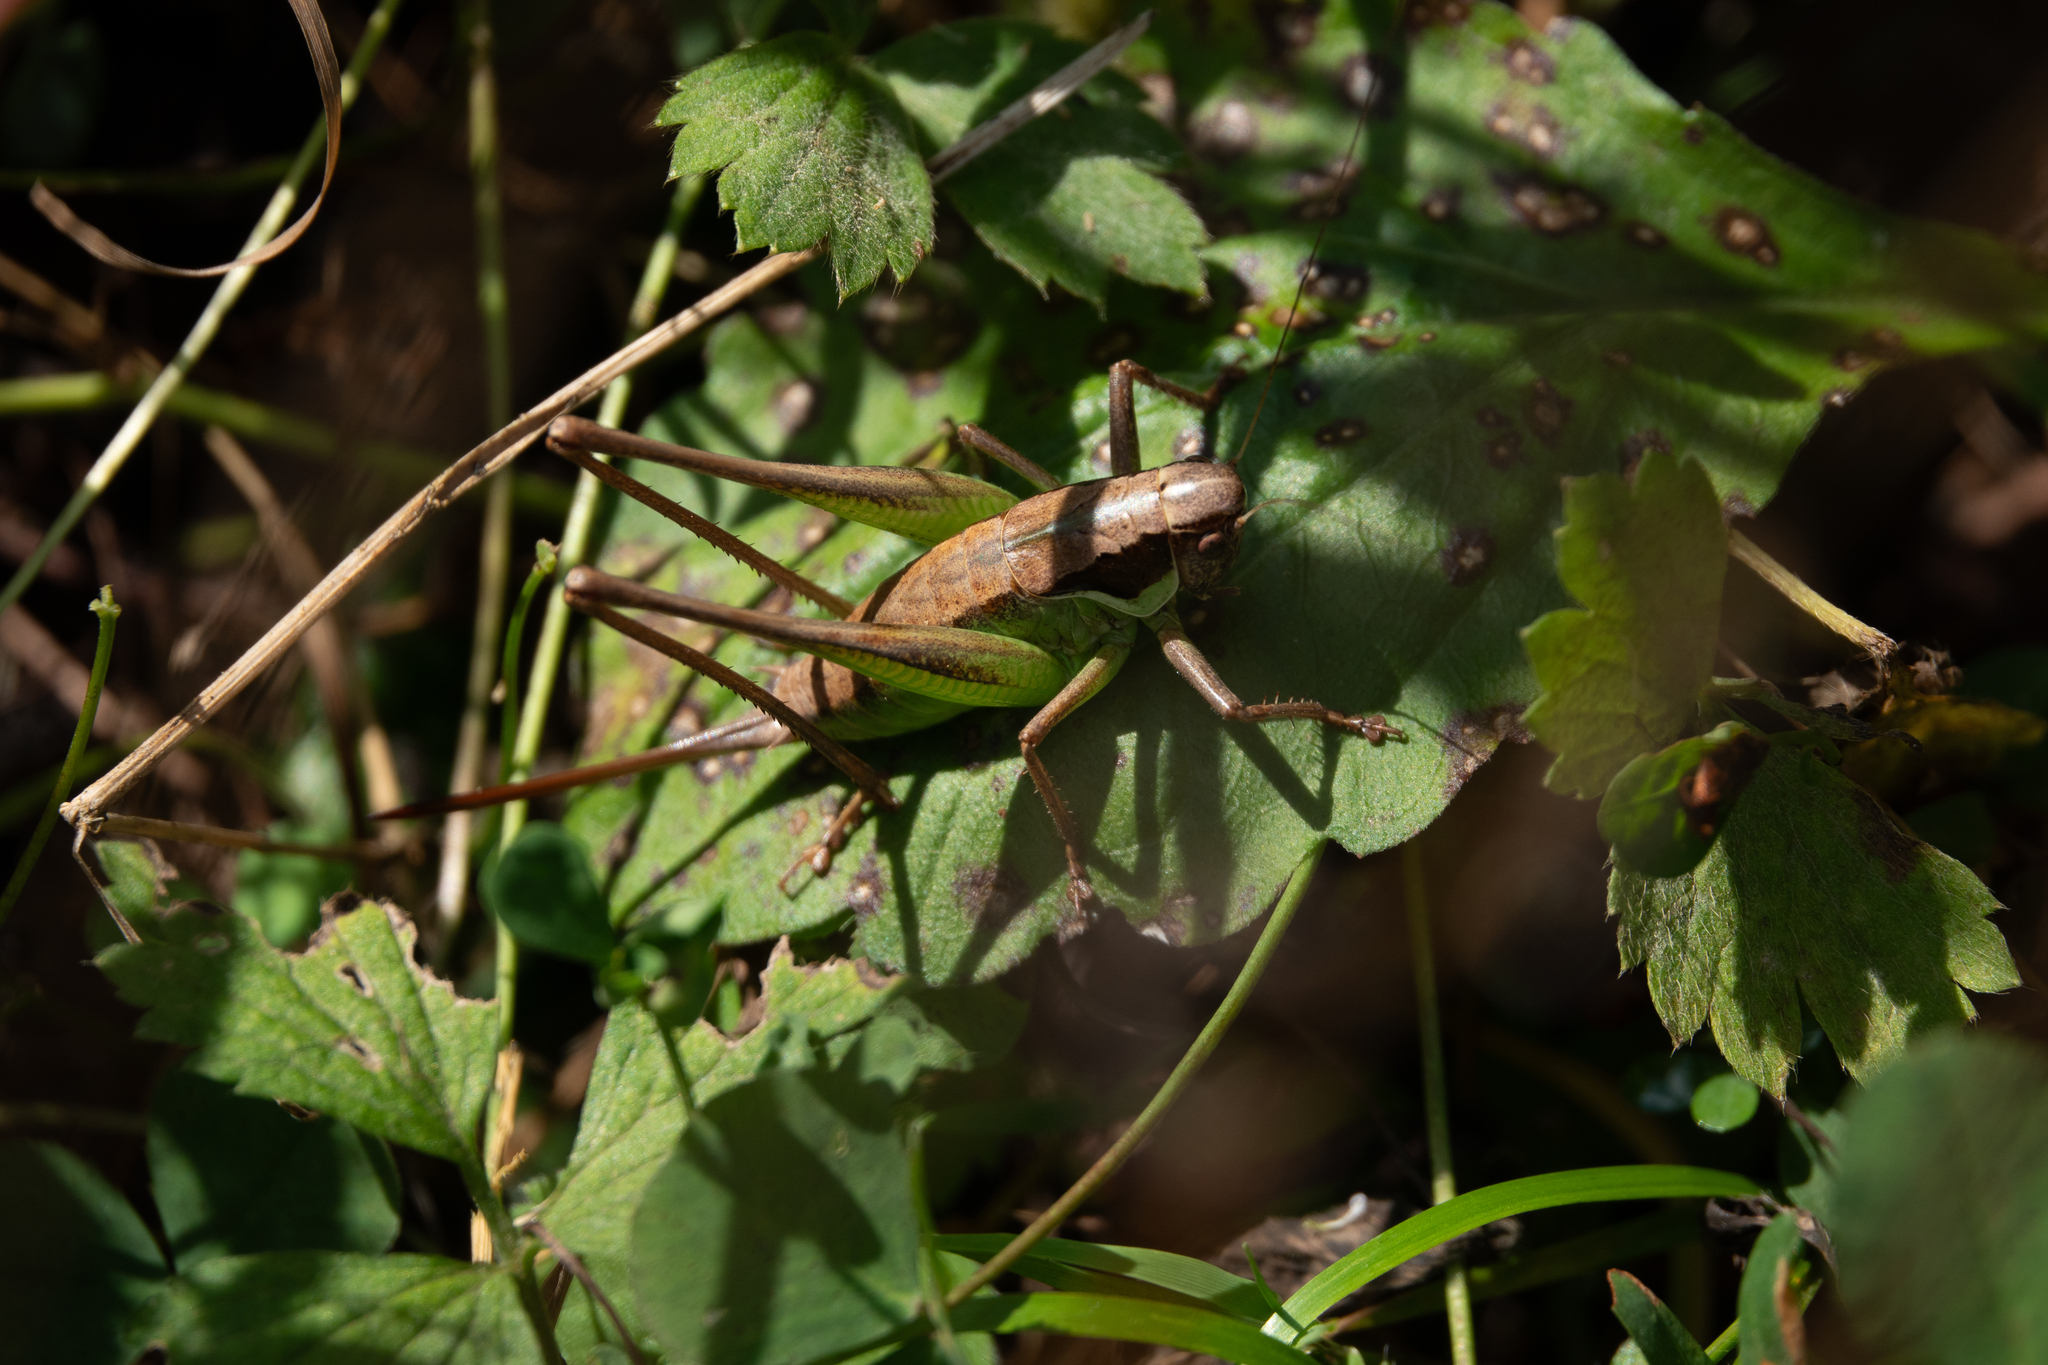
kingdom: Animalia
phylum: Arthropoda
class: Insecta
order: Orthoptera
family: Tettigoniidae
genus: Pholidoptera
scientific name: Pholidoptera littoralis
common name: Littoral dark bush-cricket
